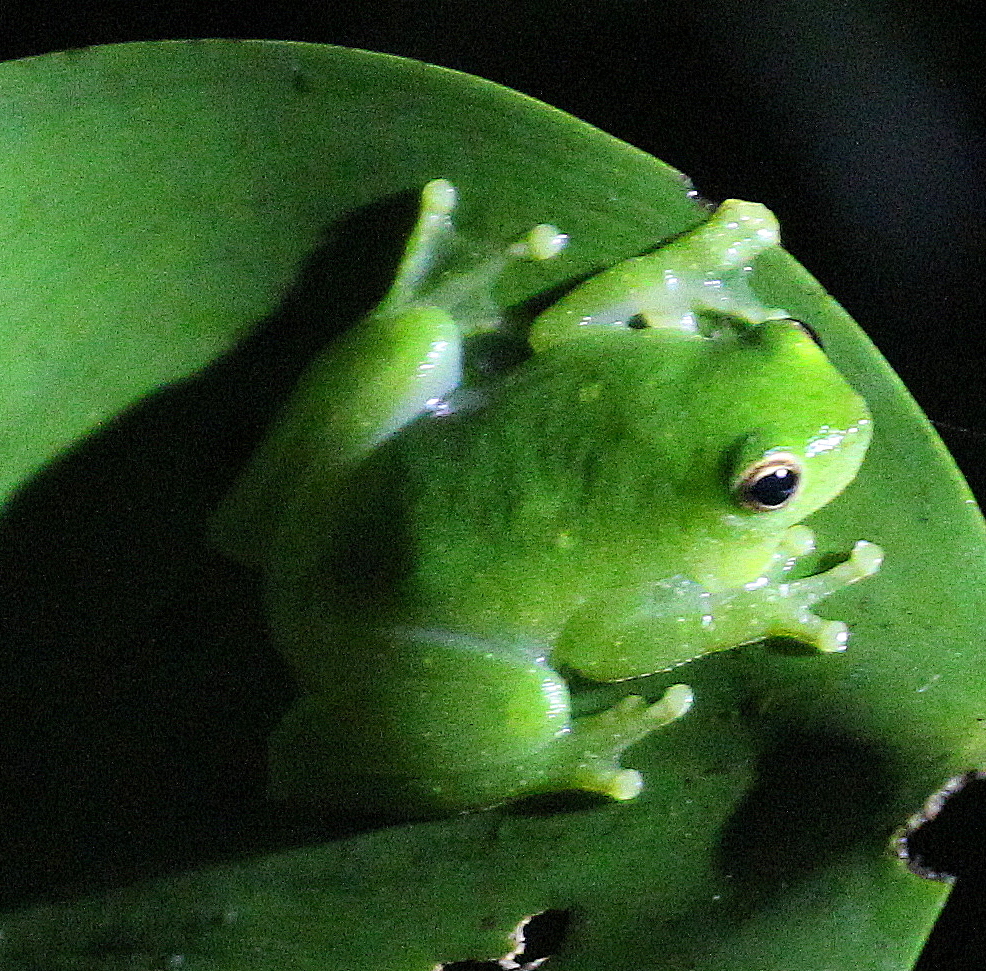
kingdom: Animalia
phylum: Chordata
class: Amphibia
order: Anura
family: Hylidae
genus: Sphaenorhynchus
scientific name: Sphaenorhynchus dorisae
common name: Spotted hatchet-faced treefrog
